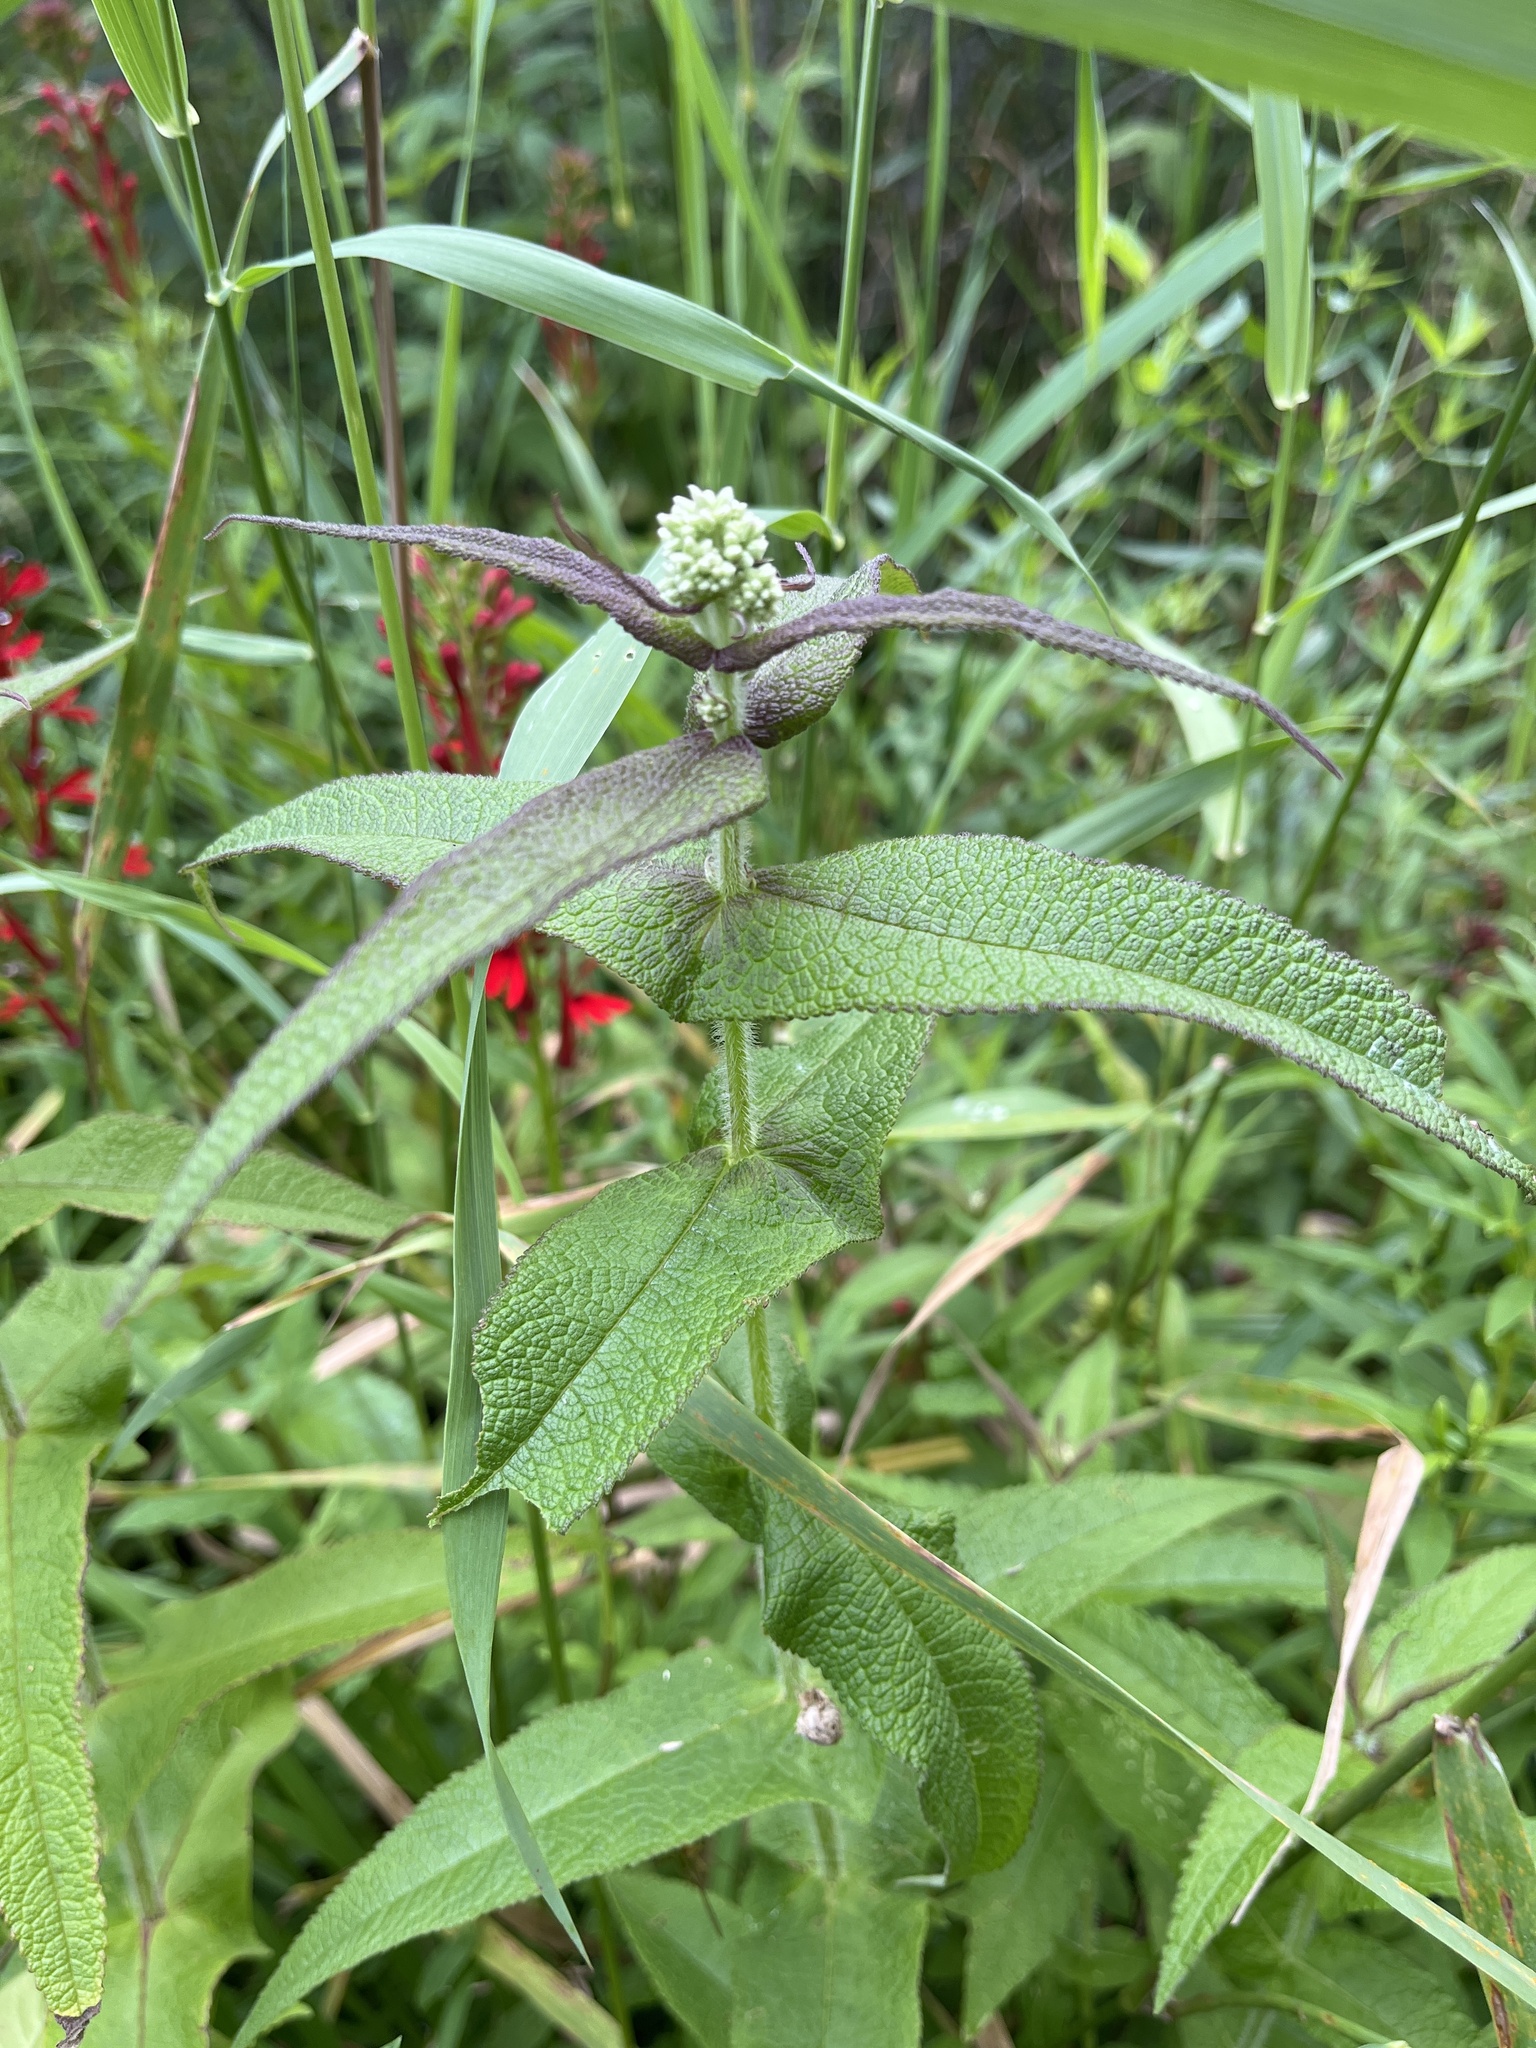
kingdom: Plantae
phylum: Tracheophyta
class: Magnoliopsida
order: Asterales
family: Asteraceae
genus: Eupatorium
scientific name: Eupatorium perfoliatum
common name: Boneset
